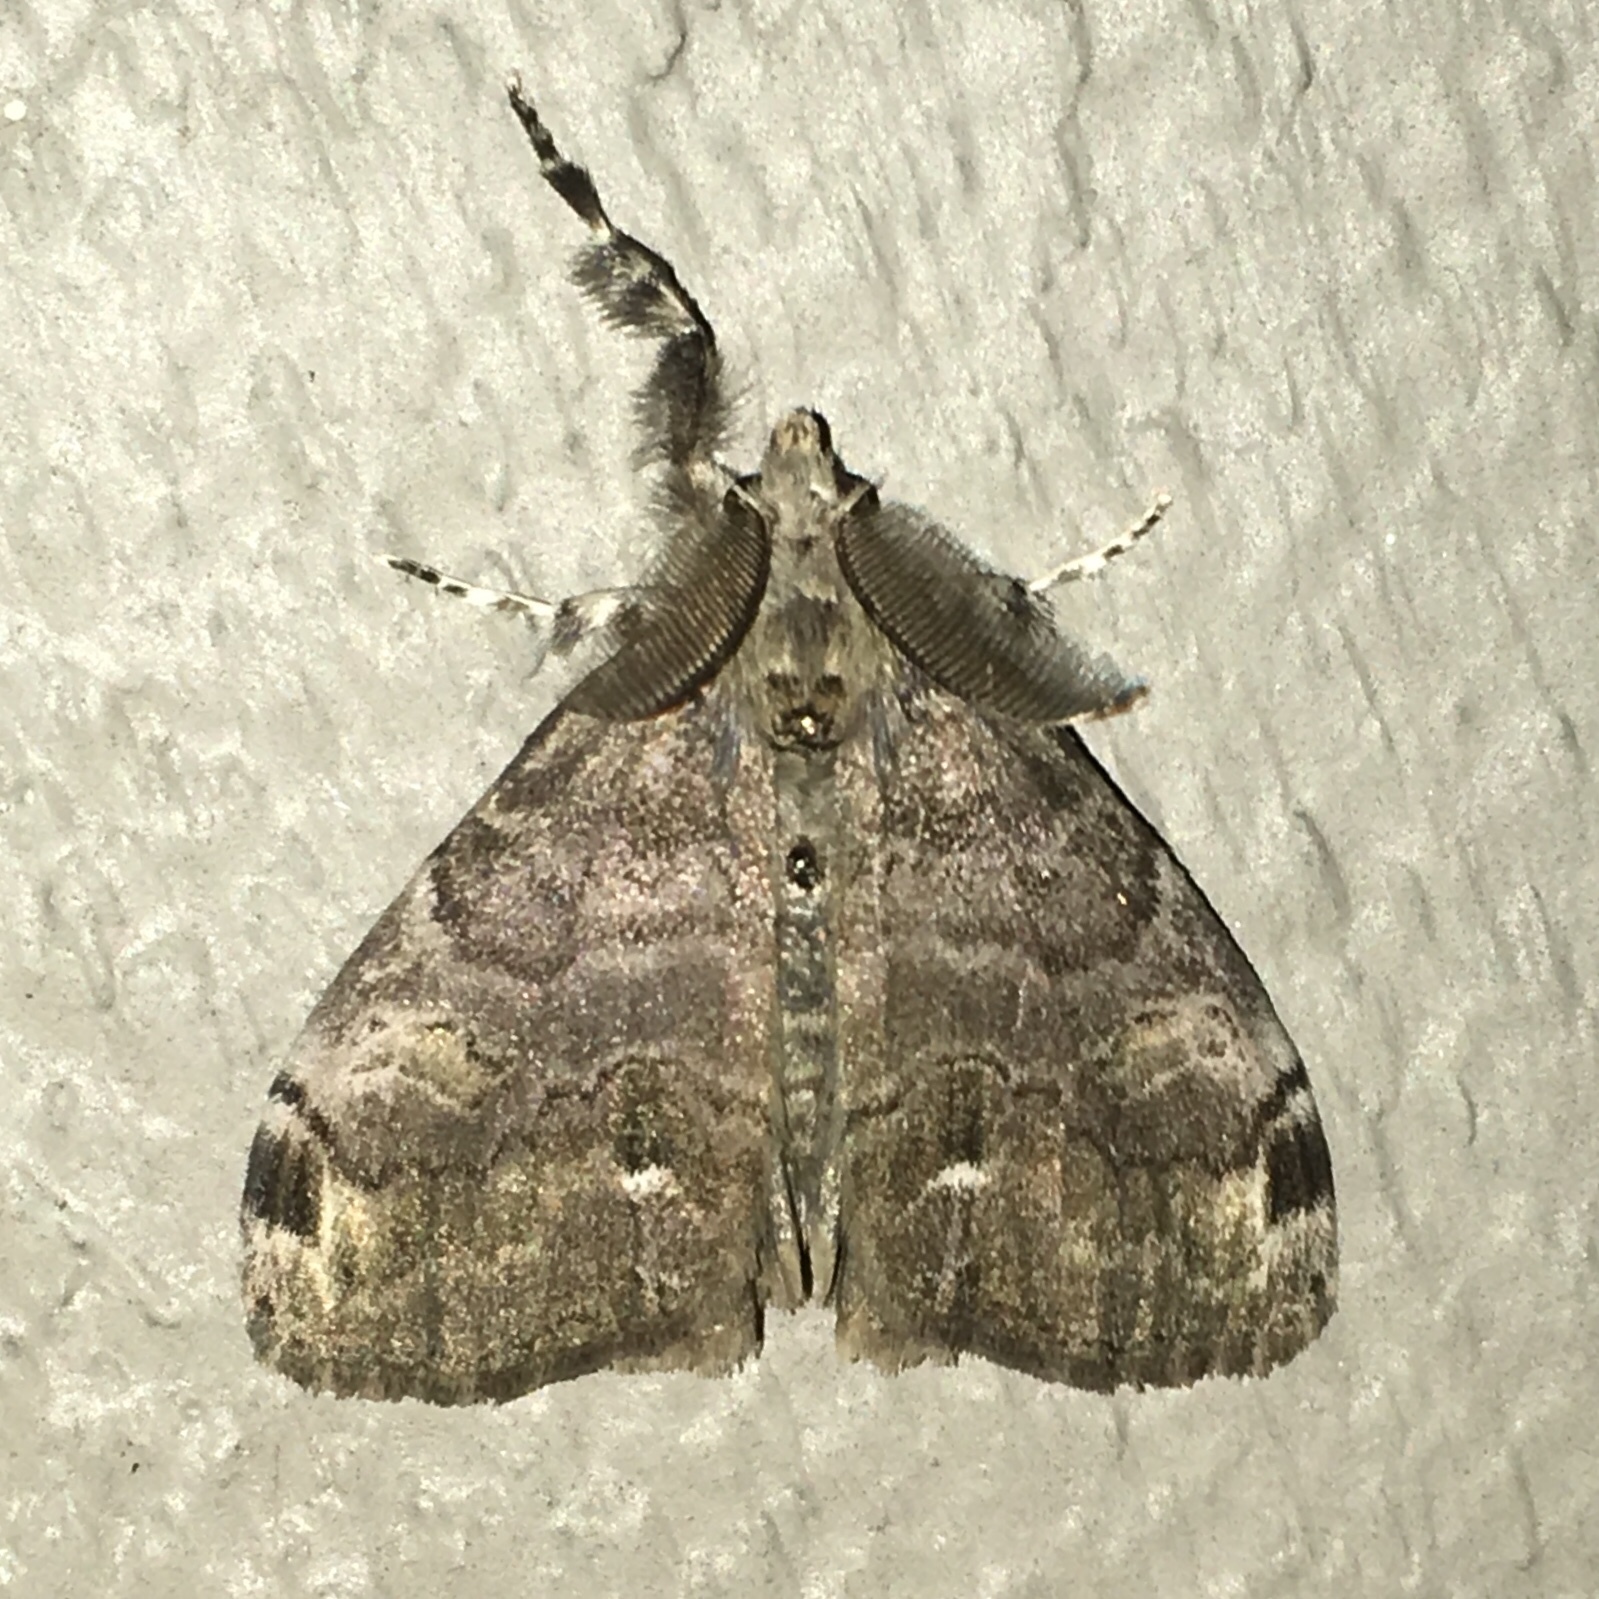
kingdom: Animalia
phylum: Arthropoda
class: Insecta
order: Lepidoptera
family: Erebidae
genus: Orgyia
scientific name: Orgyia leucostigma
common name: White-marked tussock moth
